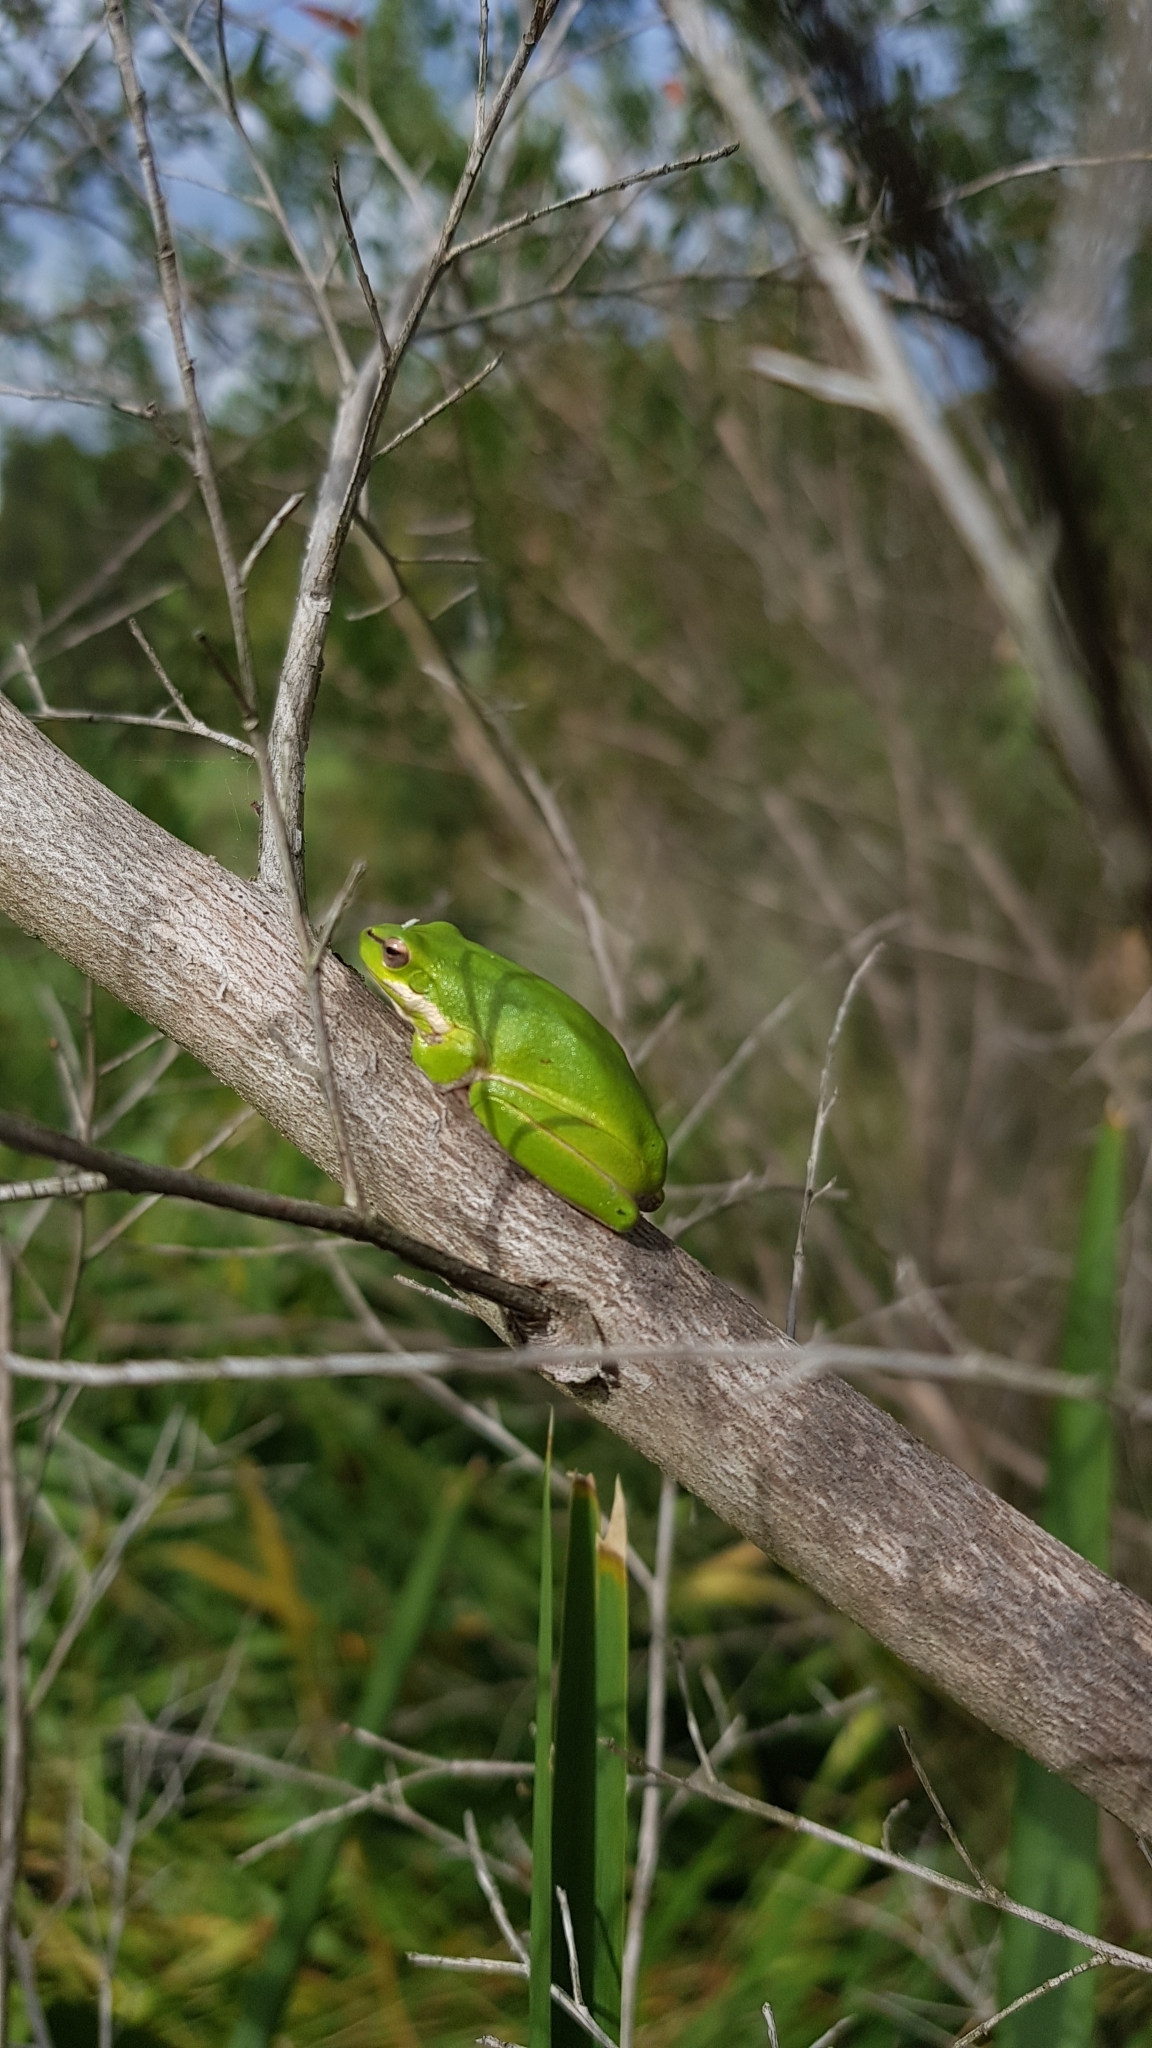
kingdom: Animalia
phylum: Chordata
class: Amphibia
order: Anura
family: Pelodryadidae
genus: Litoria
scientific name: Litoria fallax
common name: Eastern dwarf treefrog
